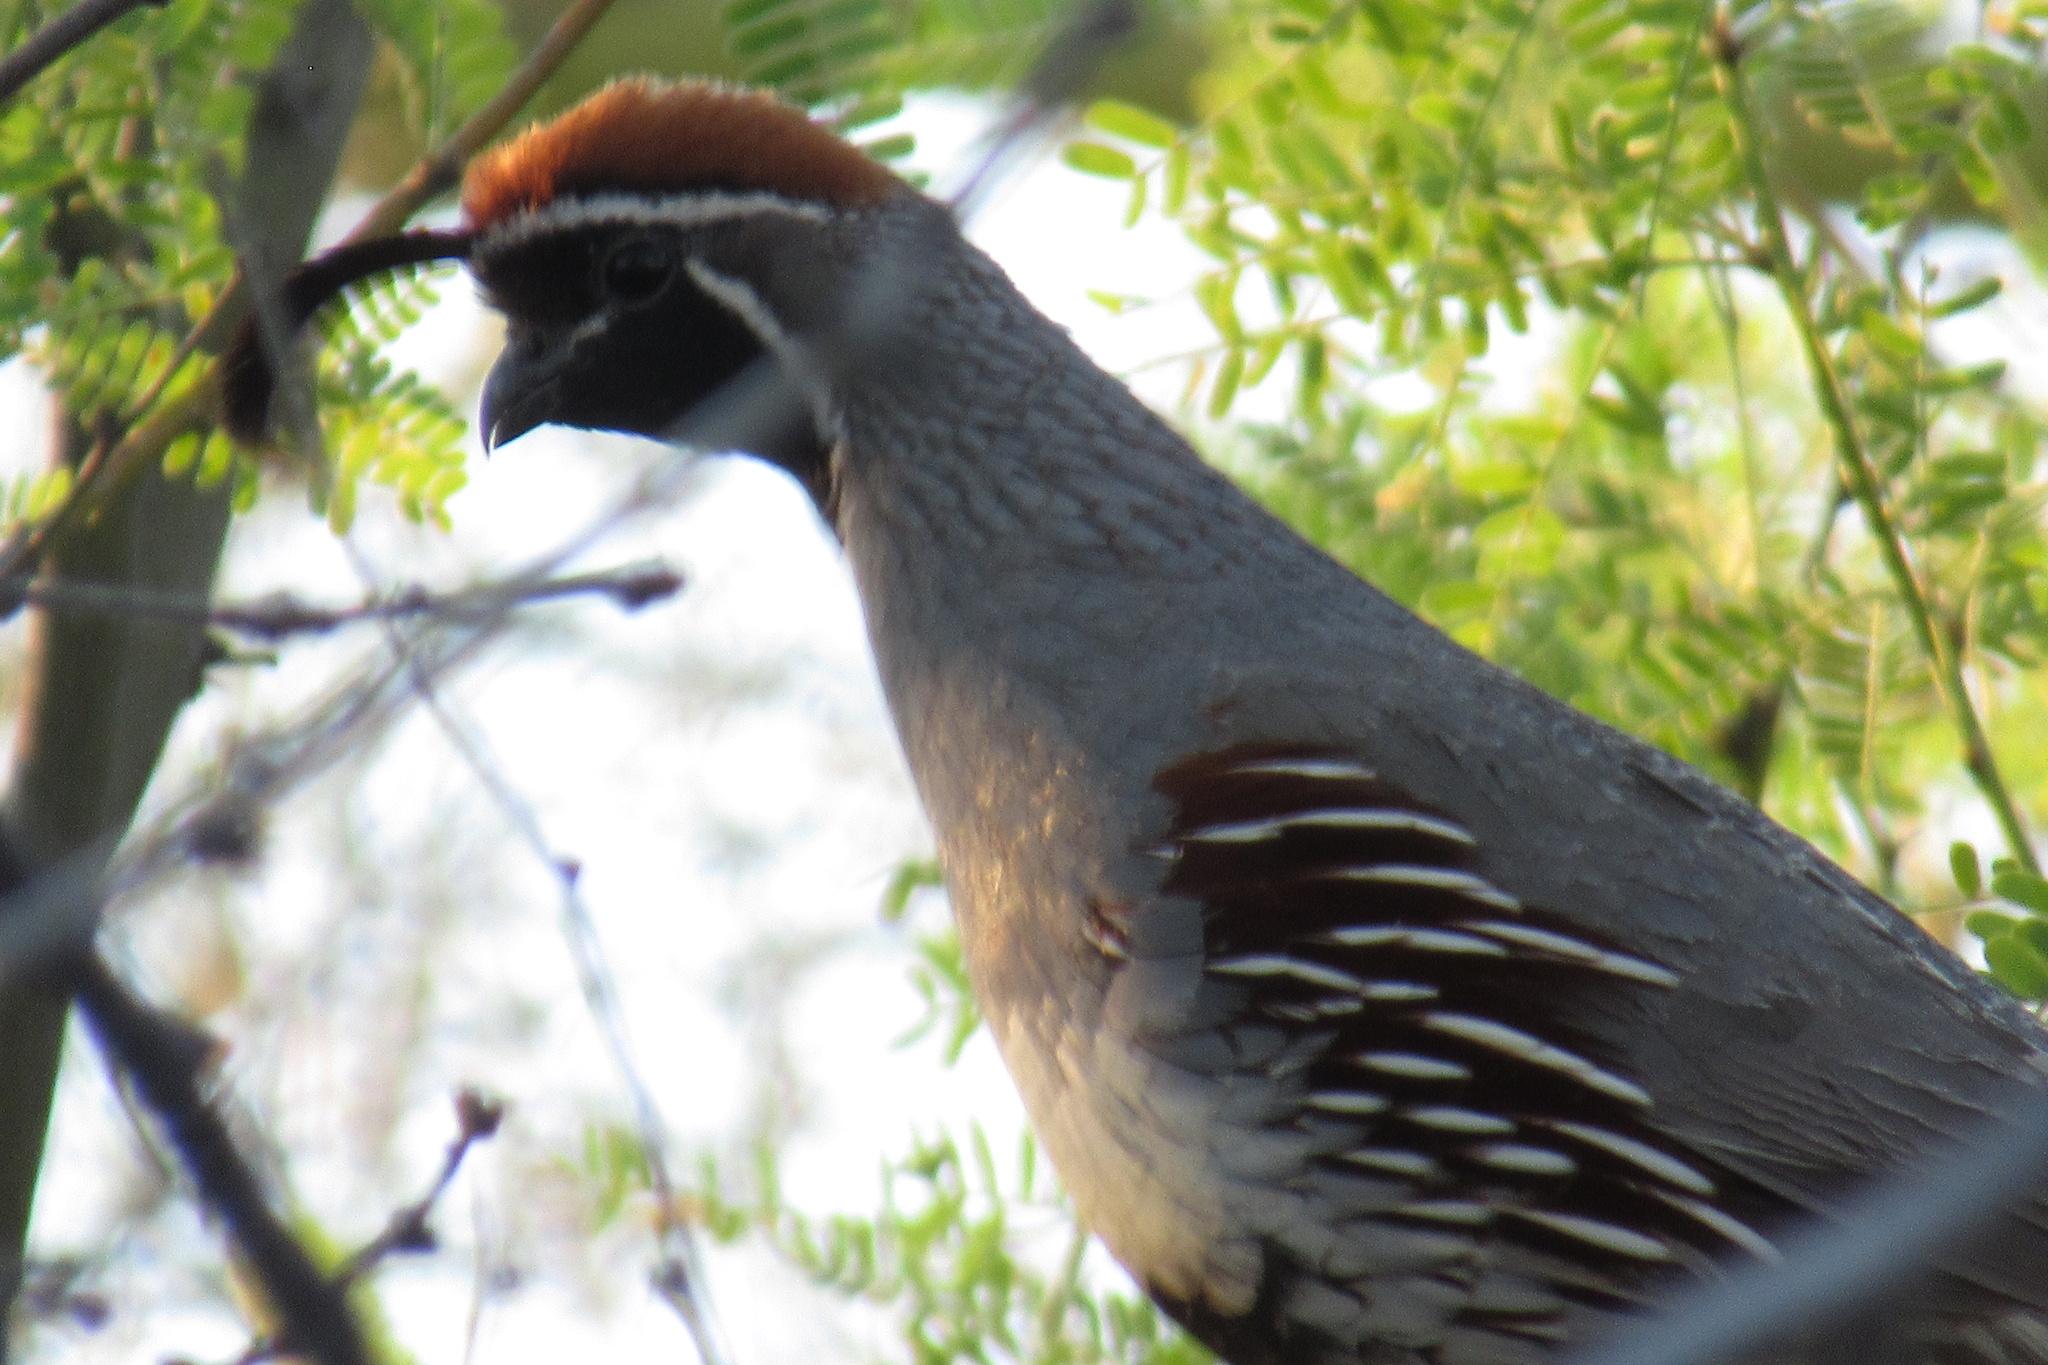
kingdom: Animalia
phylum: Chordata
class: Aves
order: Galliformes
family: Odontophoridae
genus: Callipepla
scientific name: Callipepla gambelii
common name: Gambel's quail
